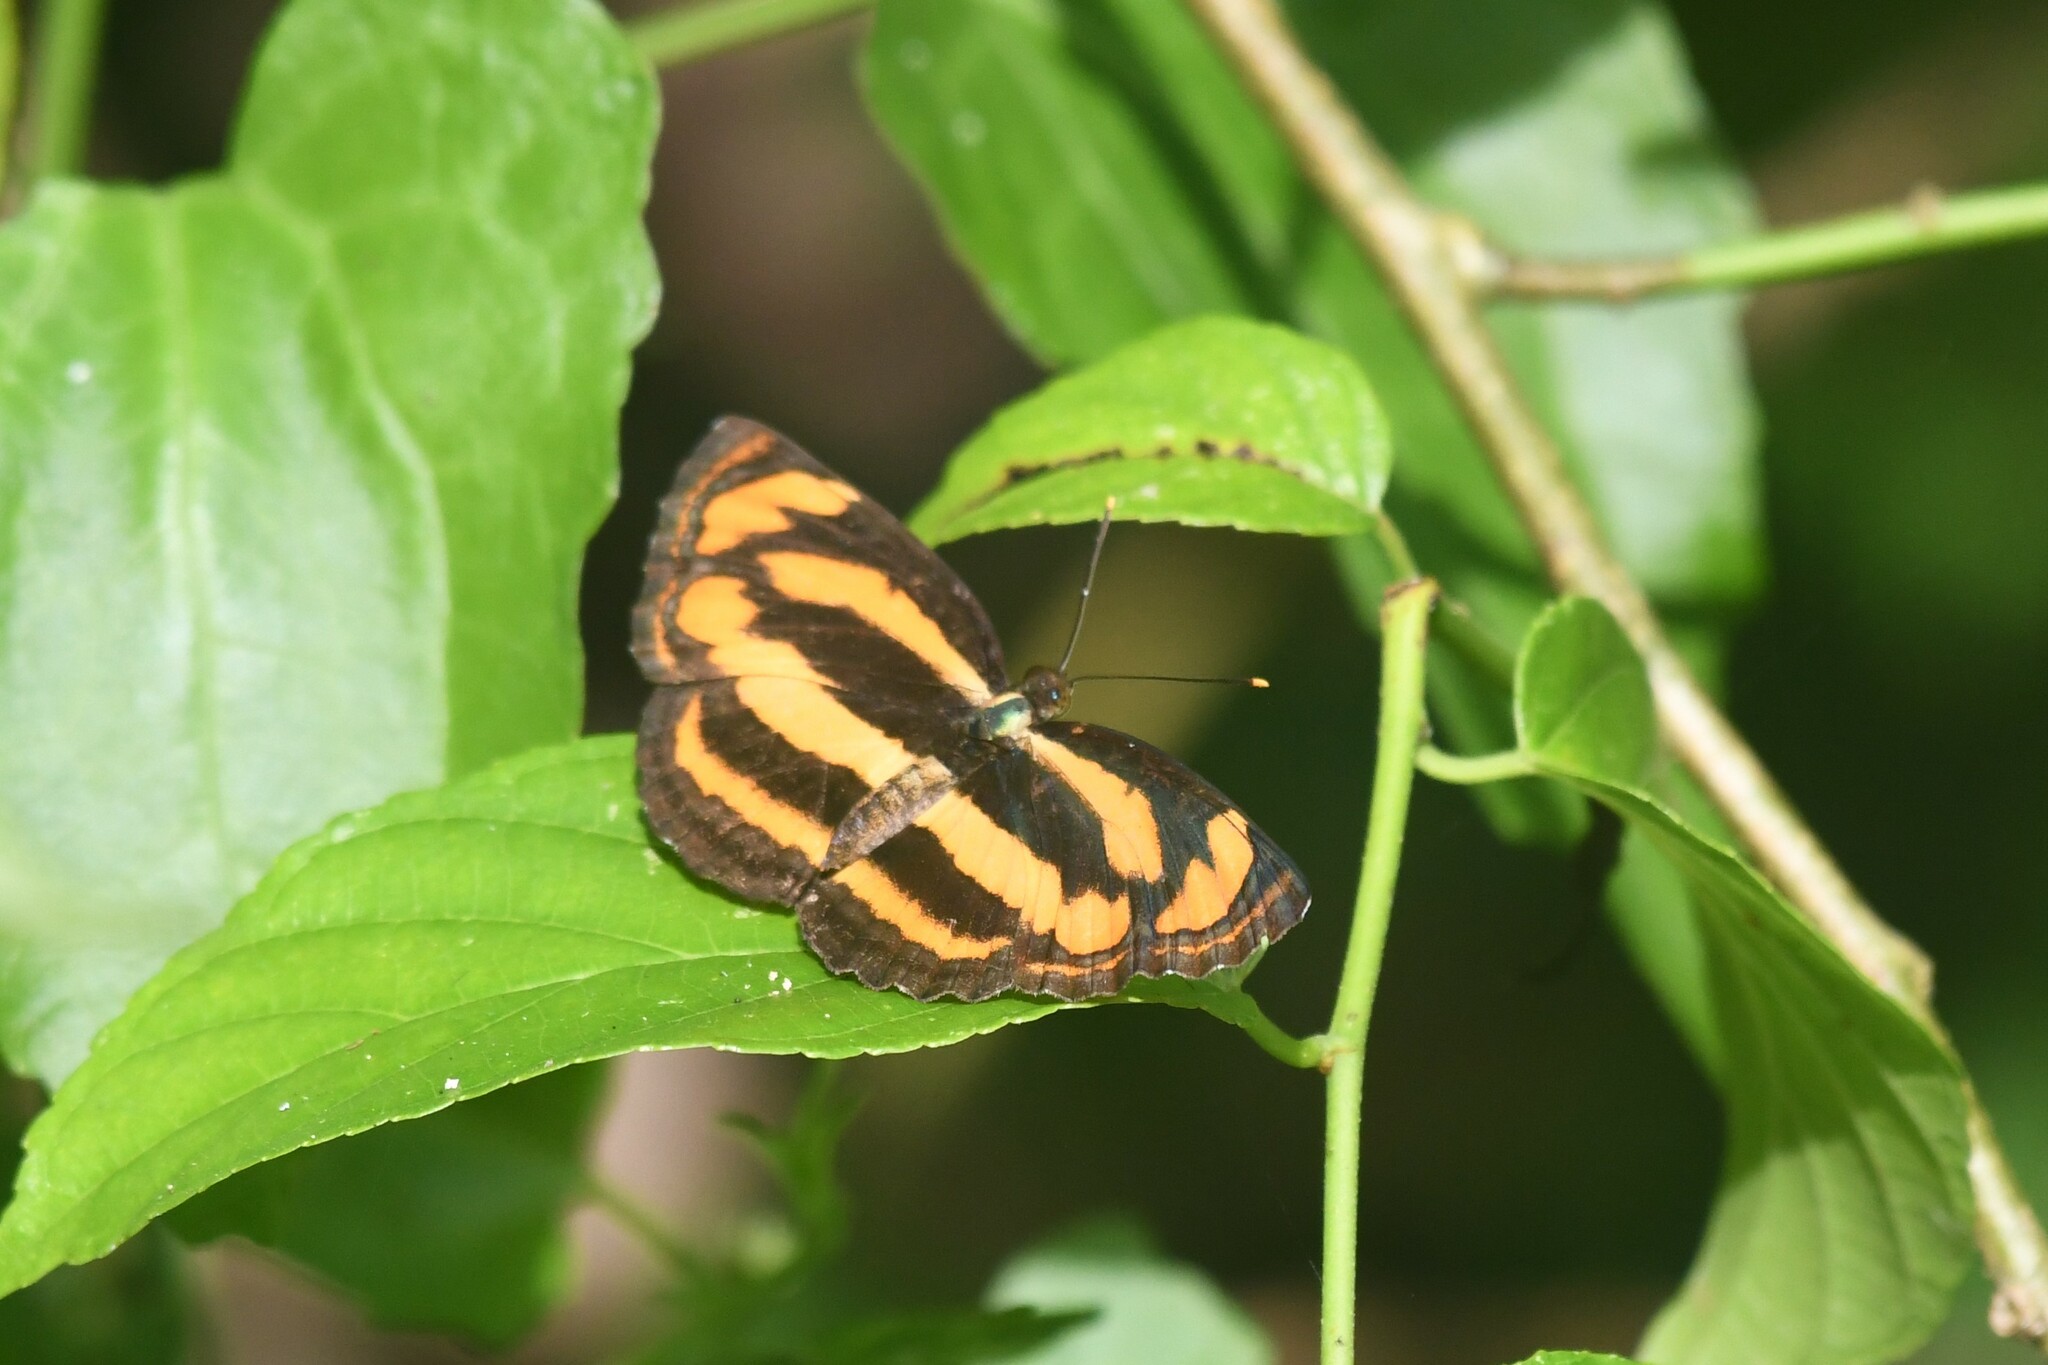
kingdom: Animalia
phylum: Arthropoda
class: Insecta
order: Lepidoptera
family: Nymphalidae
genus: Pantoporia
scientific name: Pantoporia hordonia
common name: Common lascar
